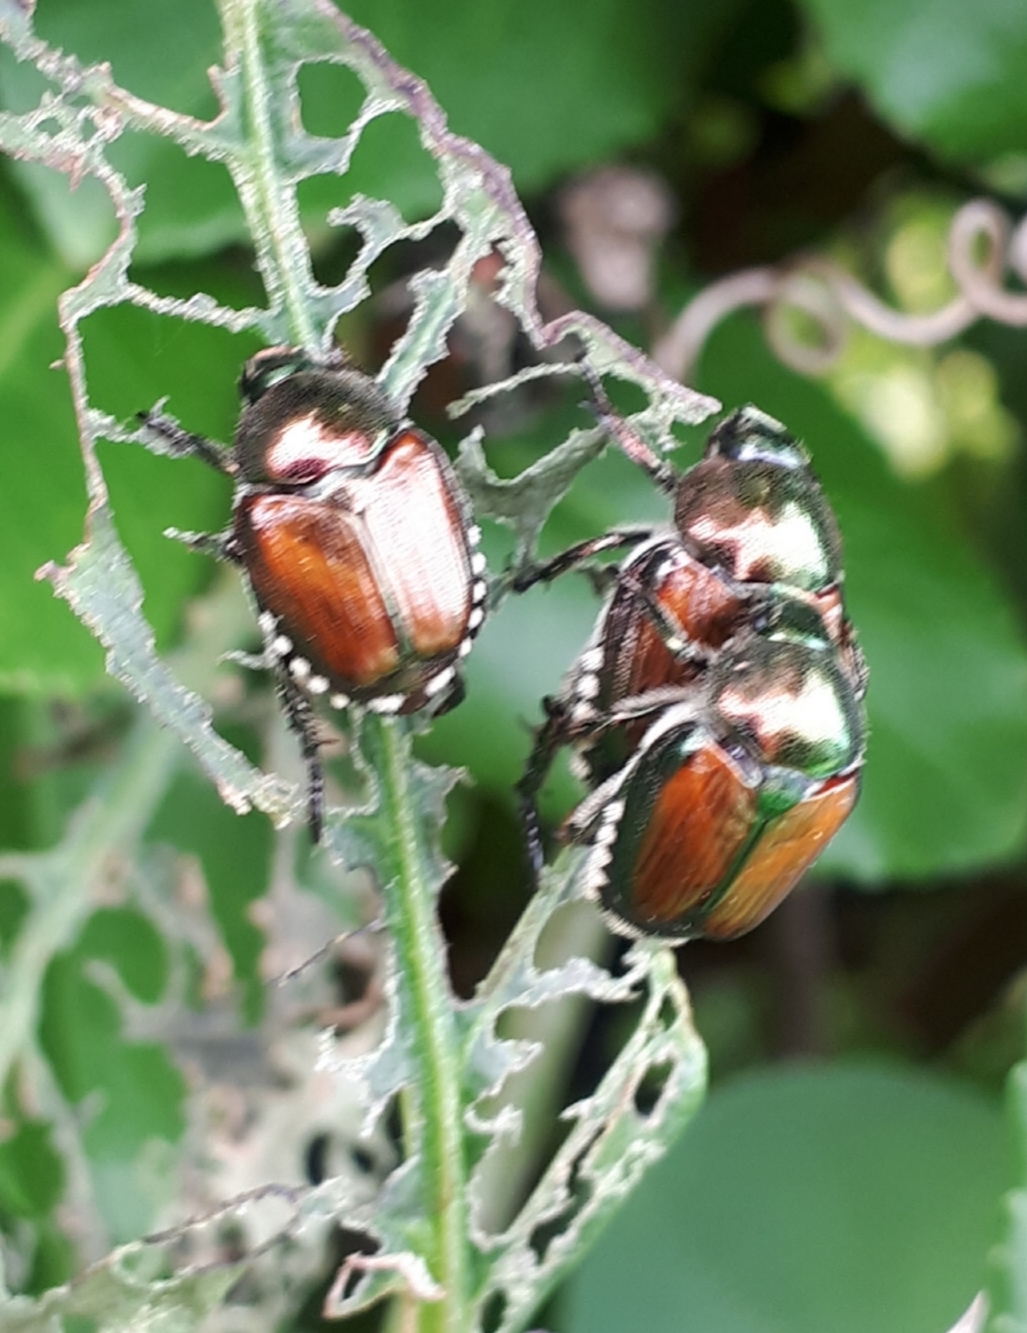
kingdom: Animalia
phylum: Arthropoda
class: Insecta
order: Coleoptera
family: Scarabaeidae
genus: Popillia
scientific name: Popillia japonica
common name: Japanese beetle
